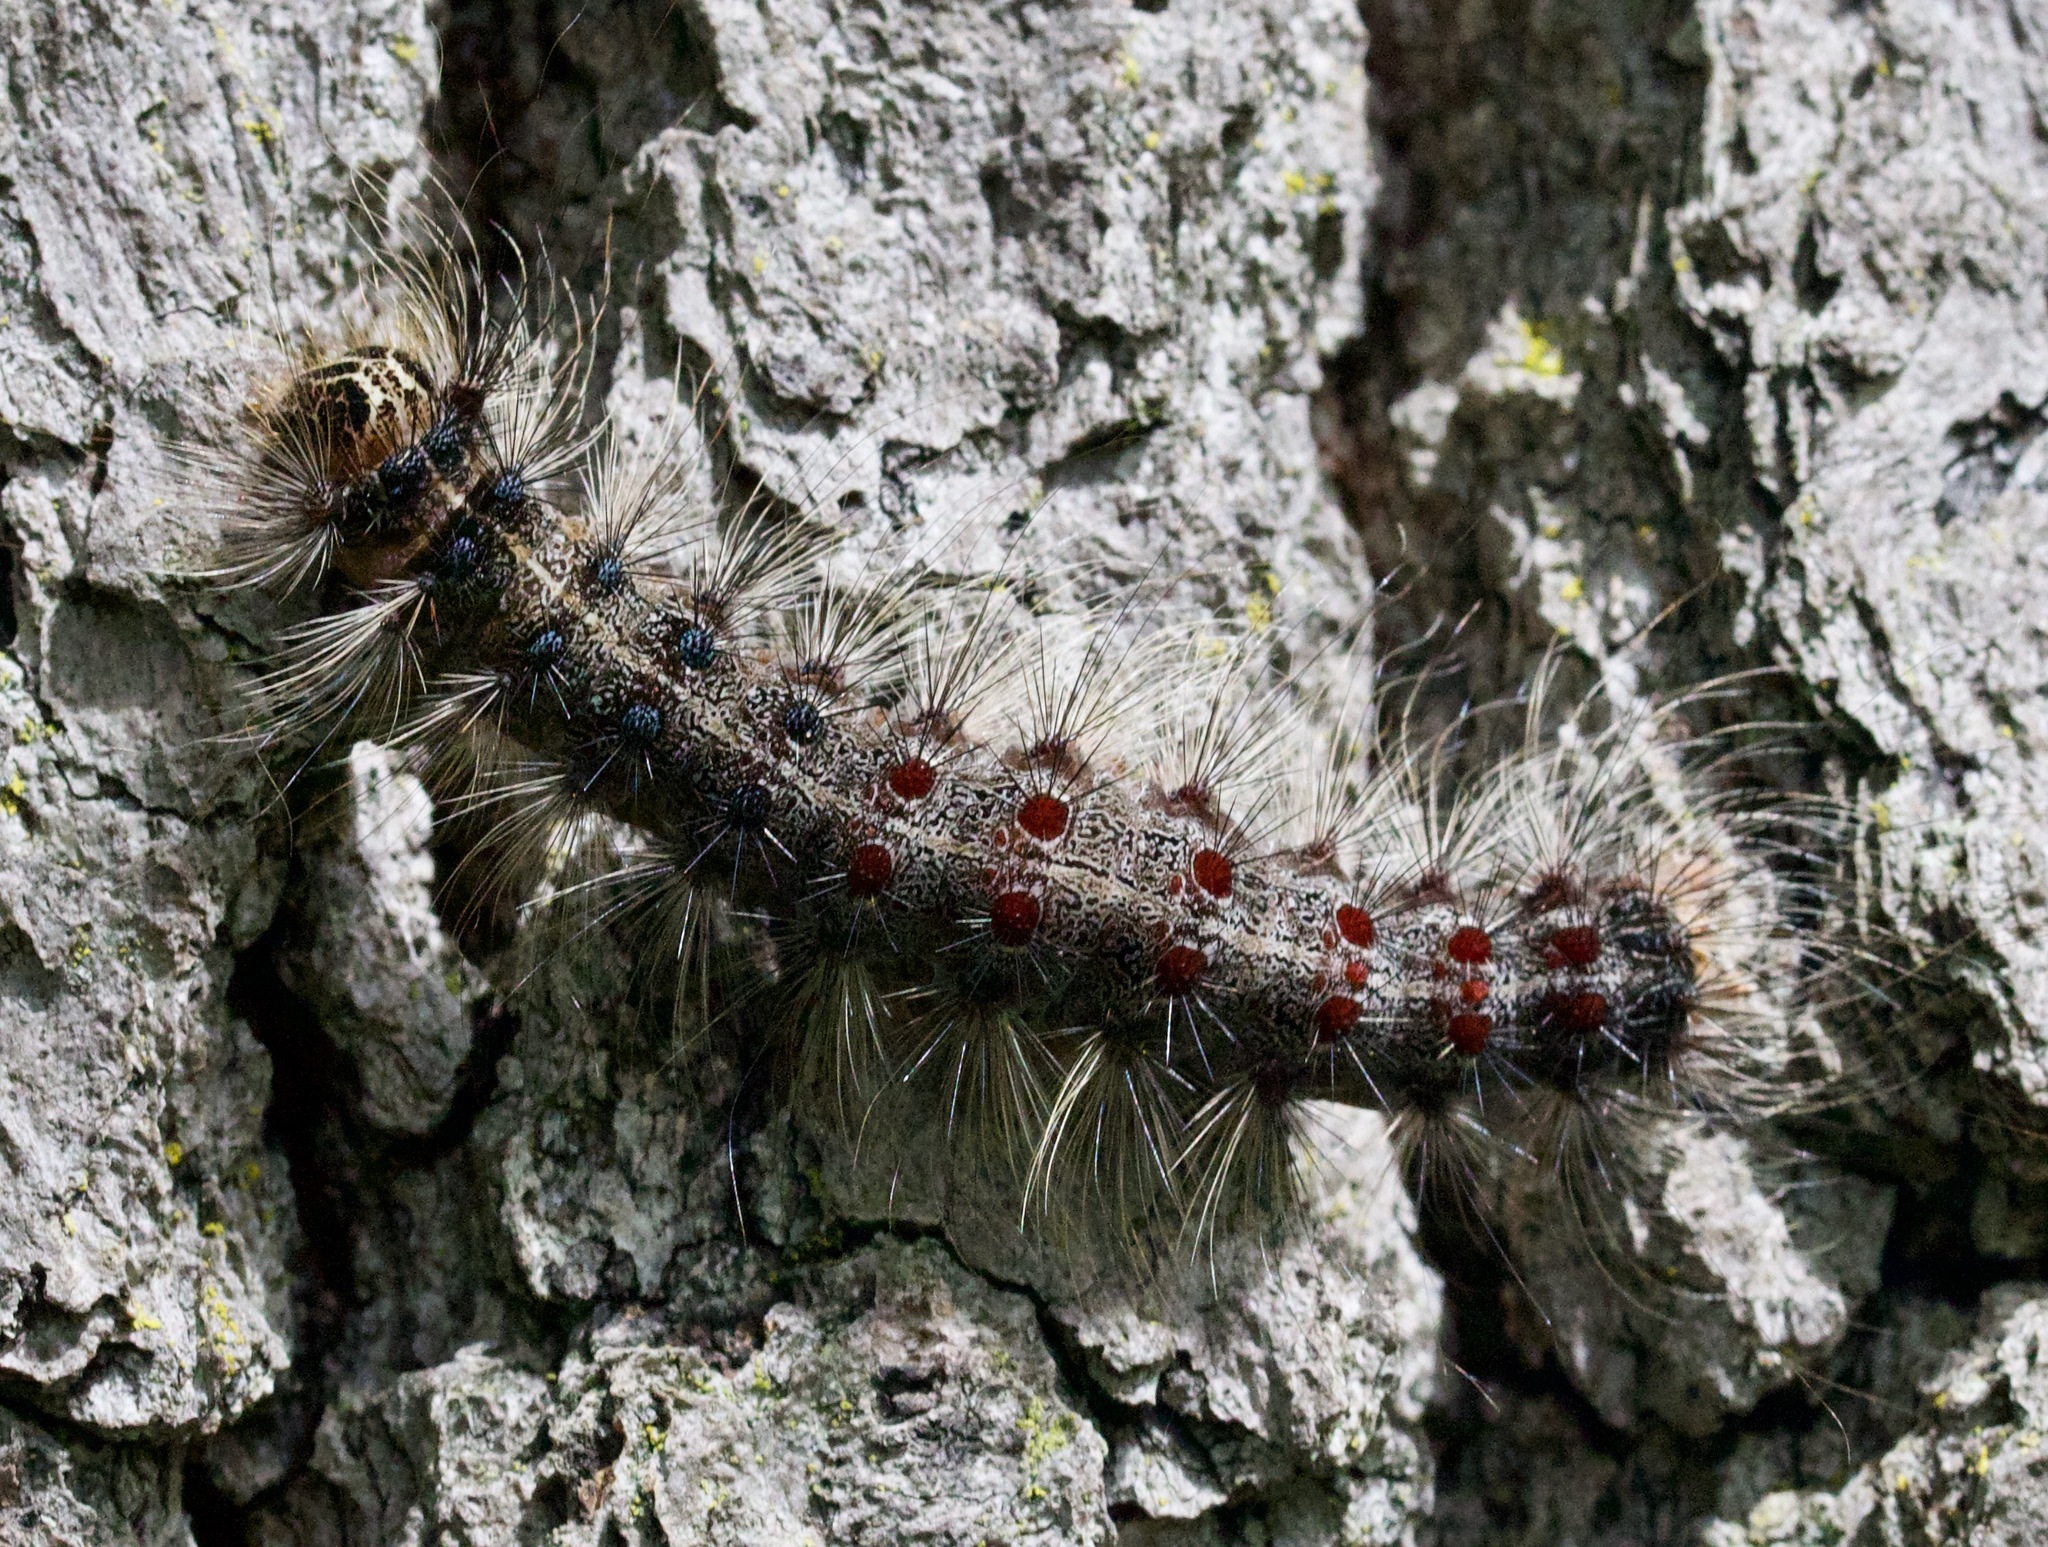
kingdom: Animalia
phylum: Arthropoda
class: Insecta
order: Lepidoptera
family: Erebidae
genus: Lymantria
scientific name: Lymantria dispar
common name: Gypsy moth
